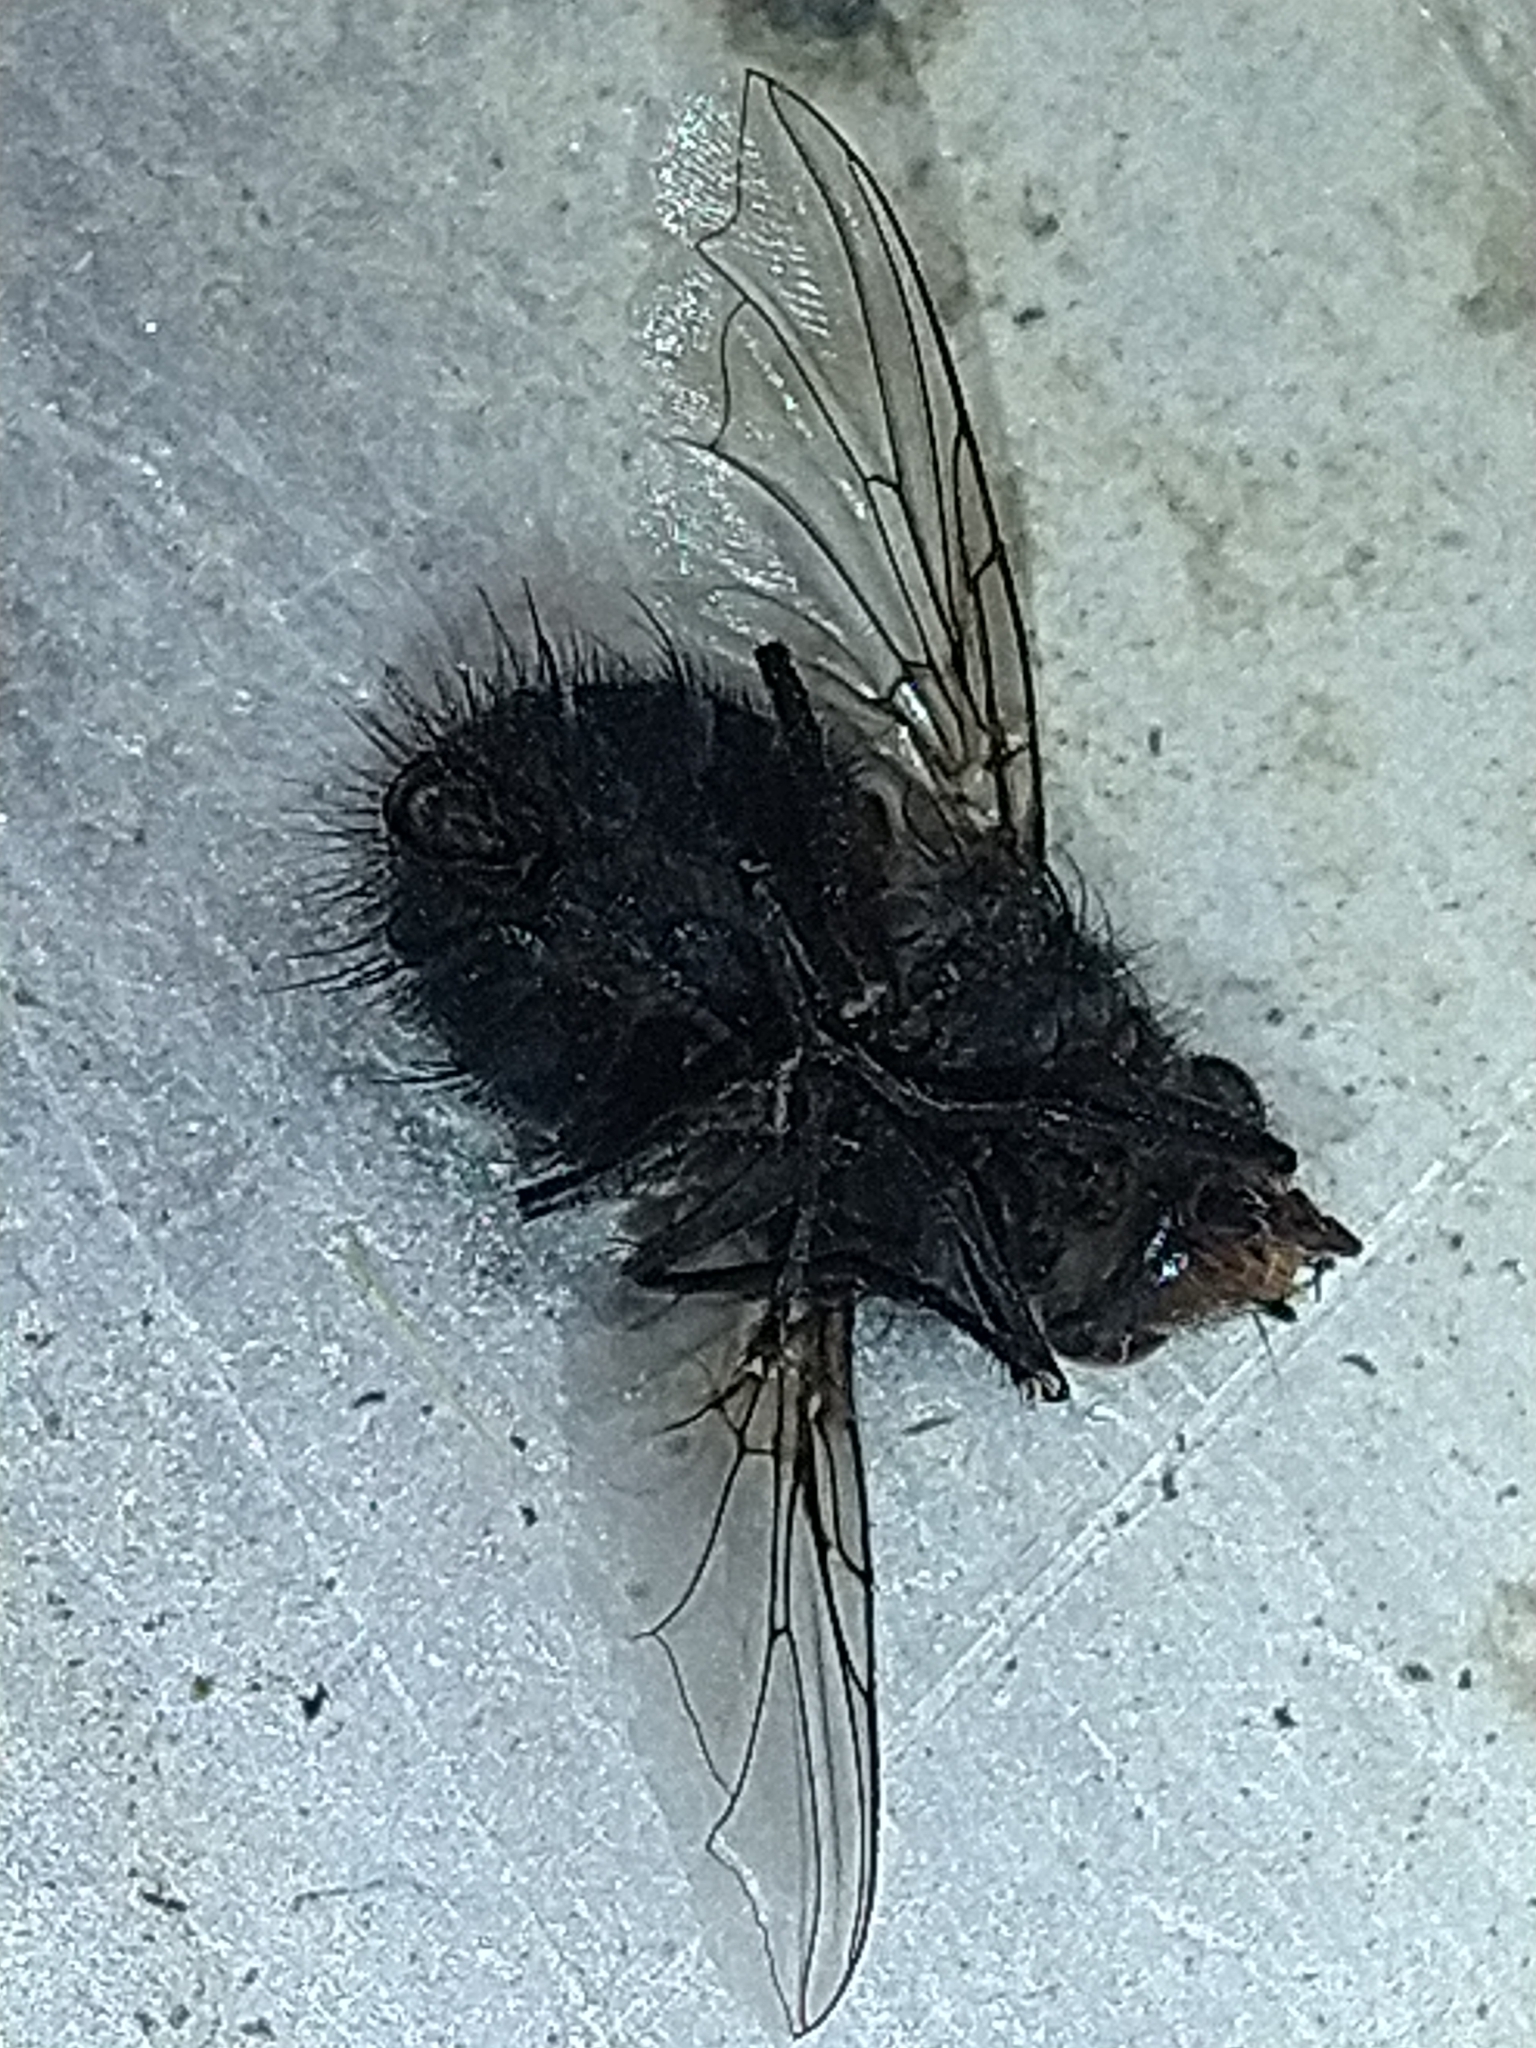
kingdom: Animalia
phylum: Arthropoda
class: Insecta
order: Diptera
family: Calliphoridae
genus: Calliphora
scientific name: Calliphora vicina
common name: Common blow flie
